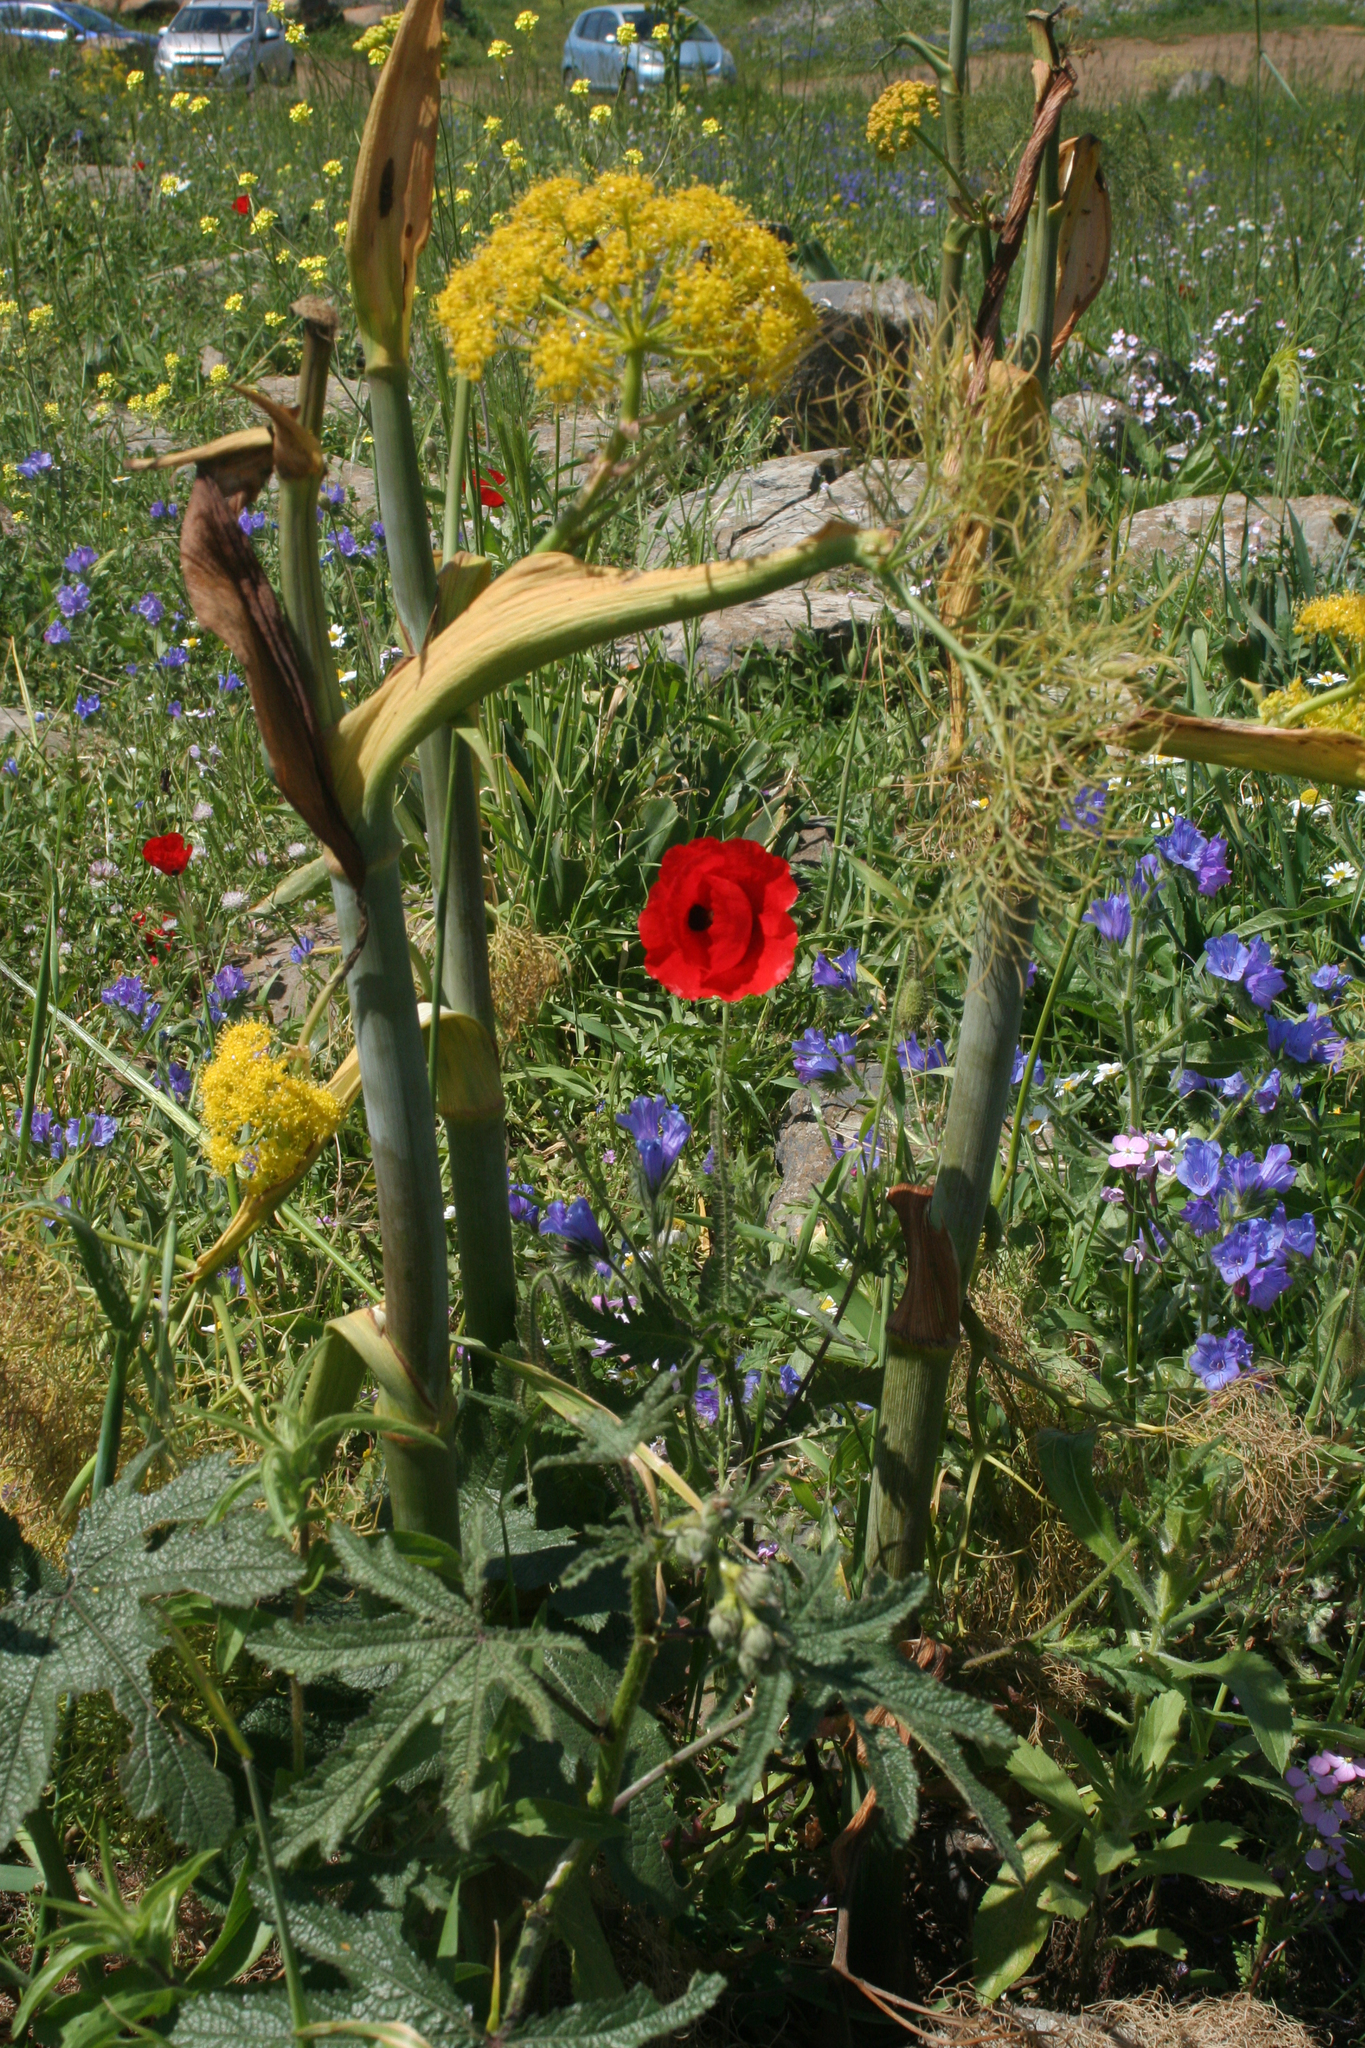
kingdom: Plantae
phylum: Tracheophyta
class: Magnoliopsida
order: Apiales
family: Apiaceae
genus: Ferula
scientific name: Ferula communis
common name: Giant fennel
